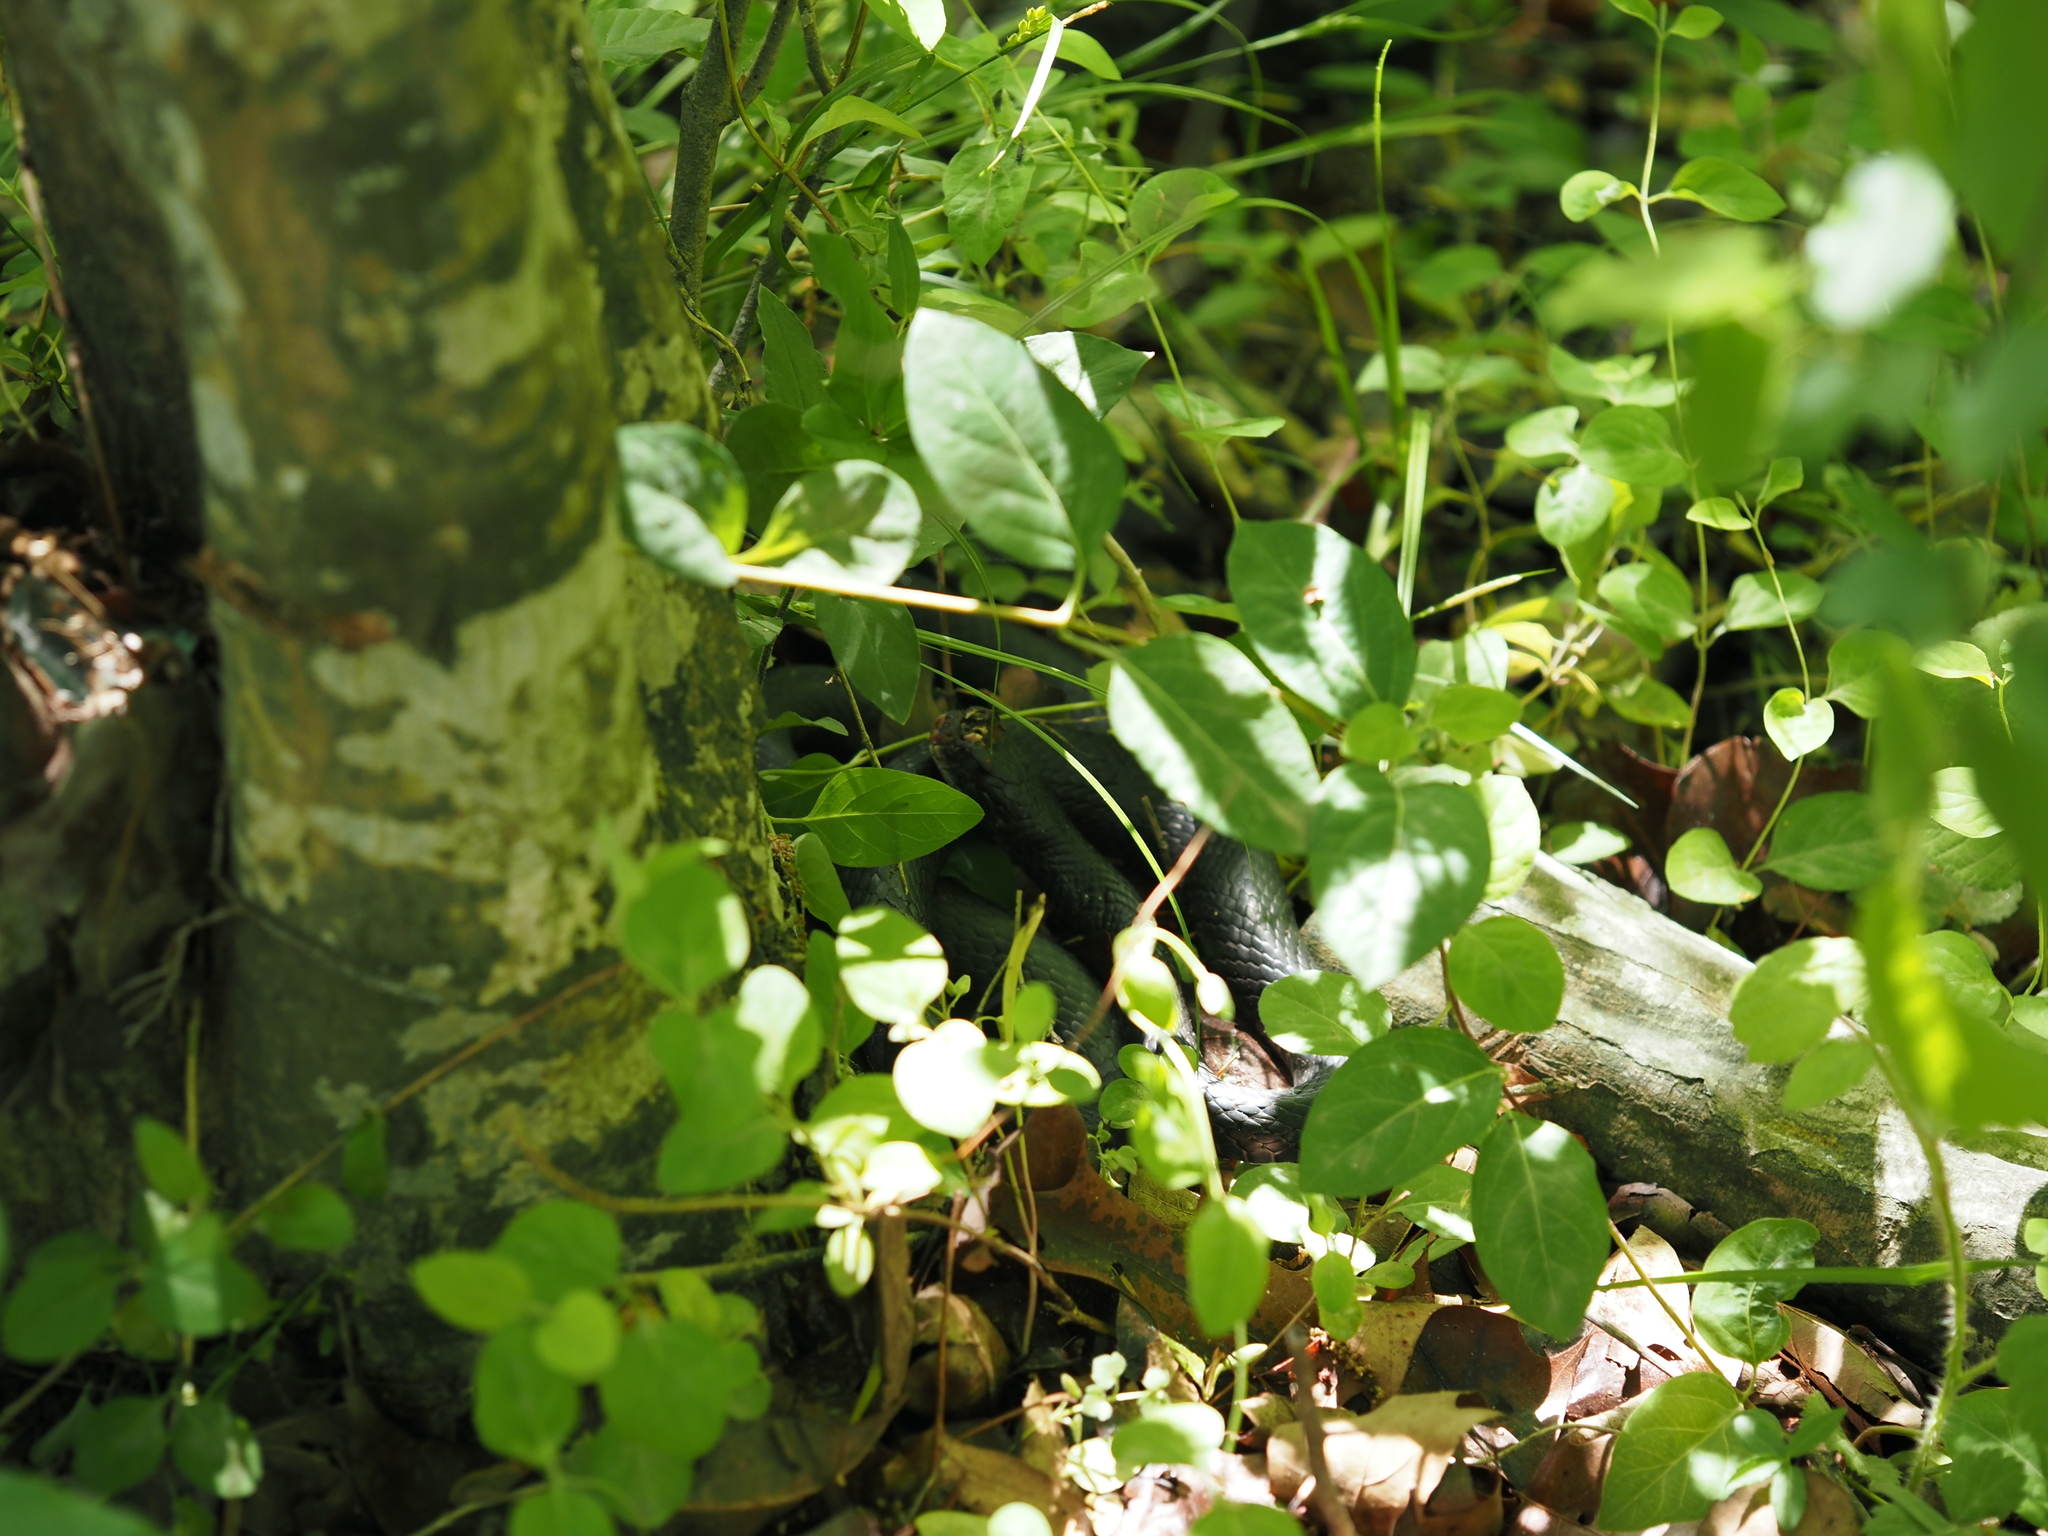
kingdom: Animalia
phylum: Chordata
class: Squamata
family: Colubridae
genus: Coluber
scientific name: Coluber constrictor
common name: Eastern racer
